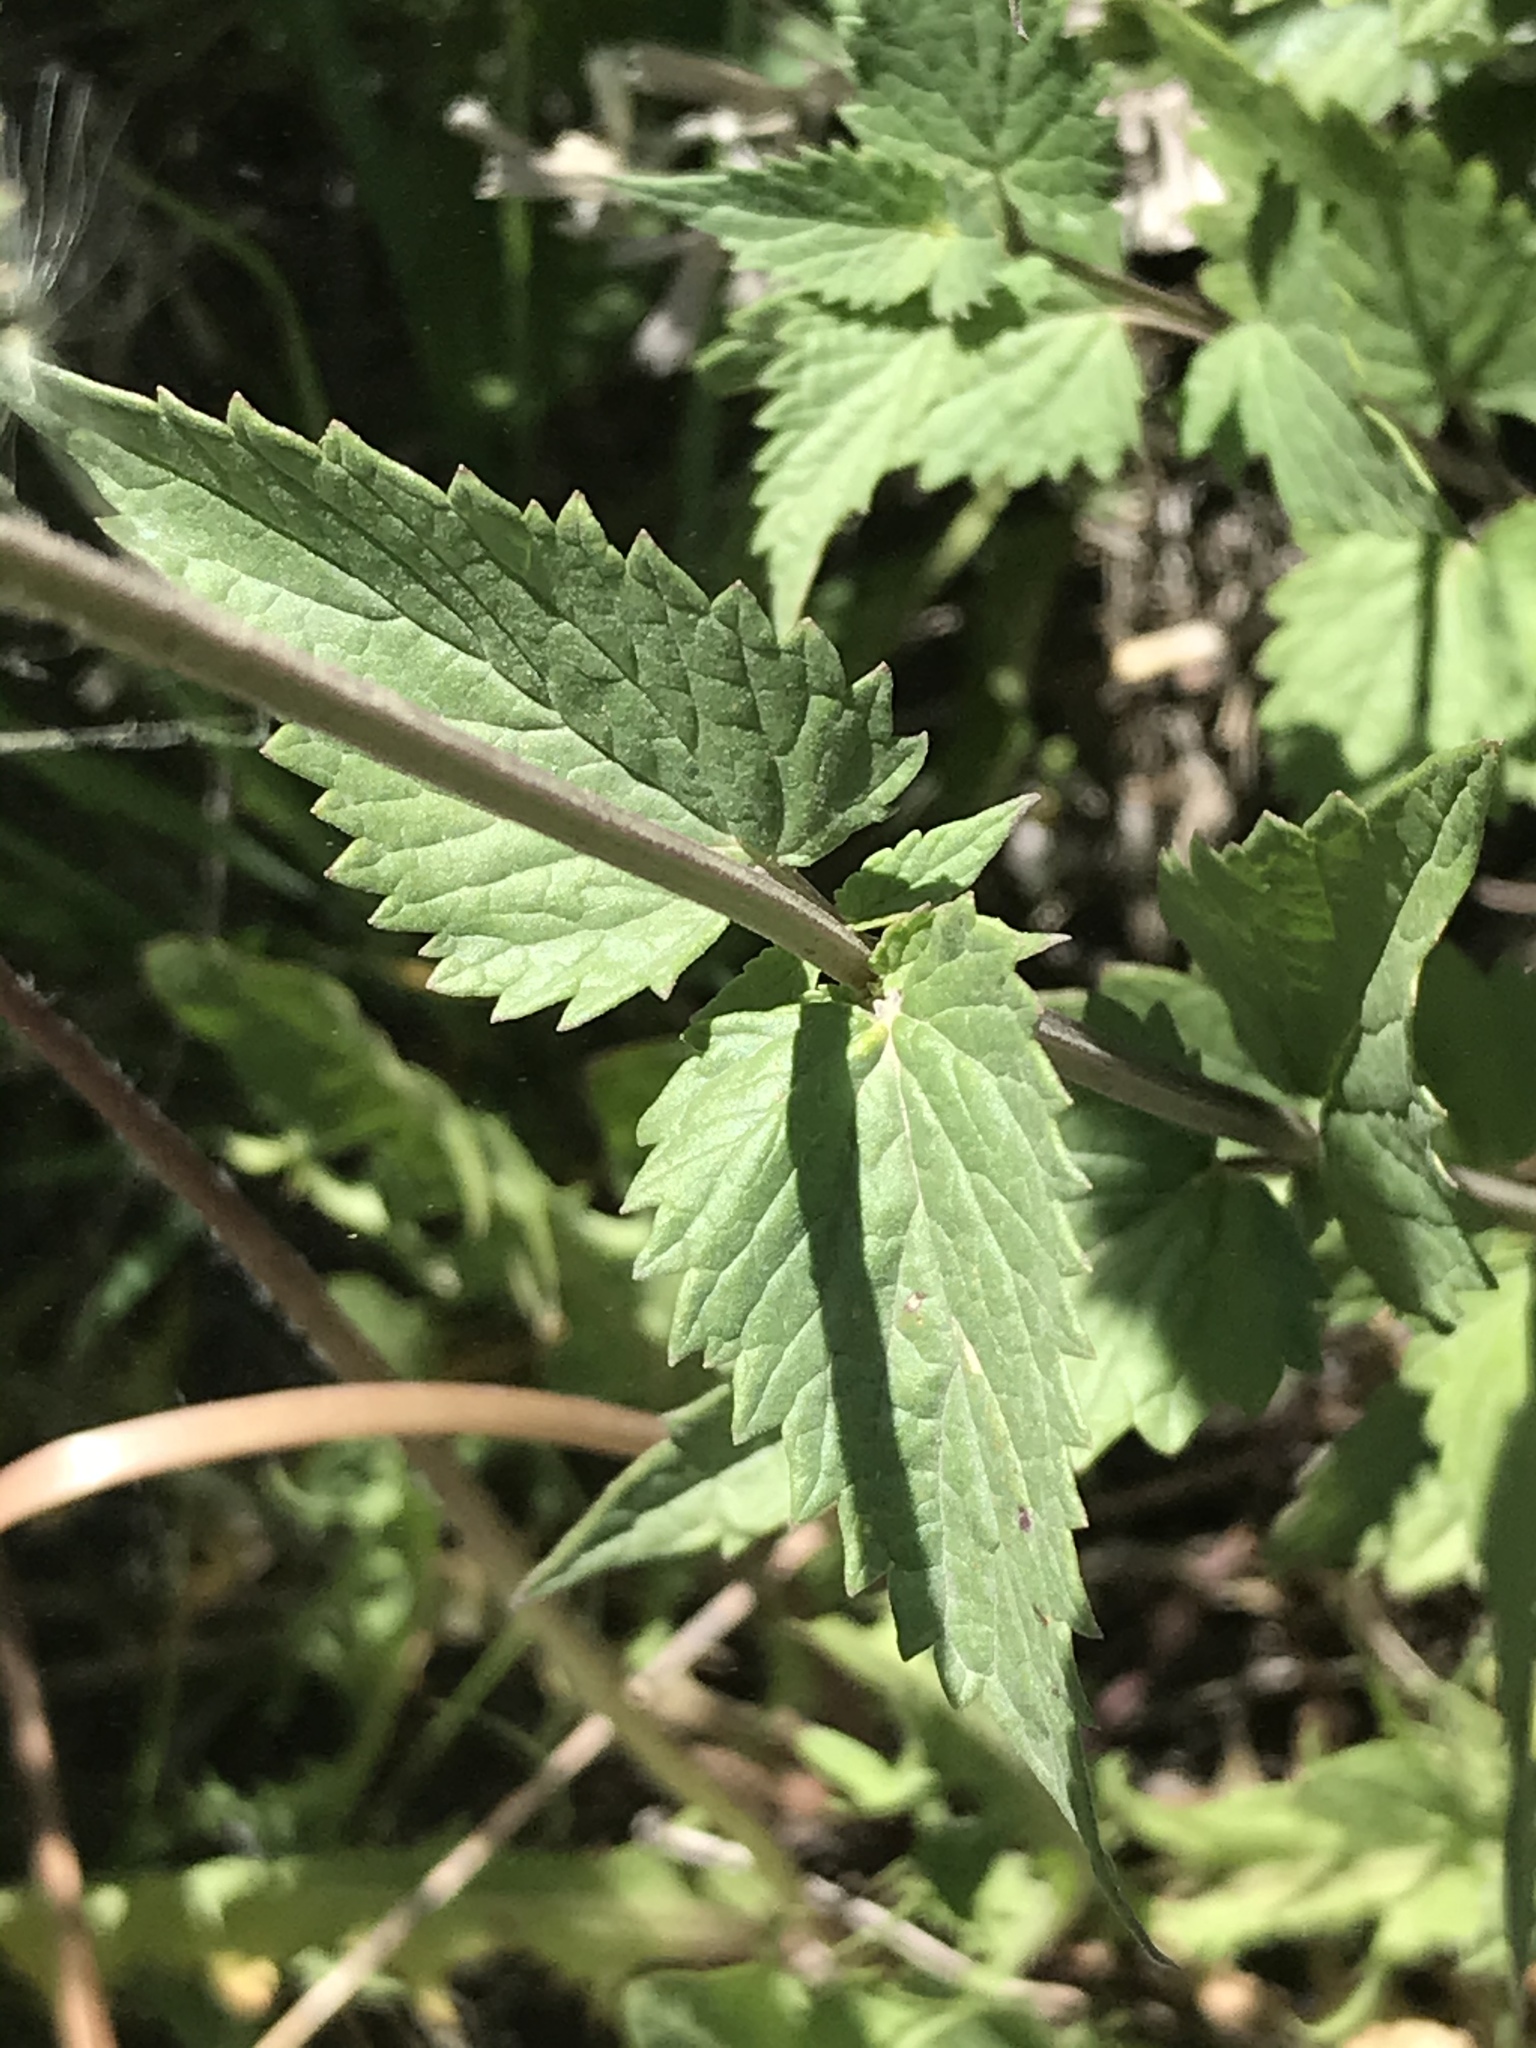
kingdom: Plantae
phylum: Tracheophyta
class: Magnoliopsida
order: Lamiales
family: Lamiaceae
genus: Agastache
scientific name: Agastache urticifolia
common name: Horsemint giant hyssop
